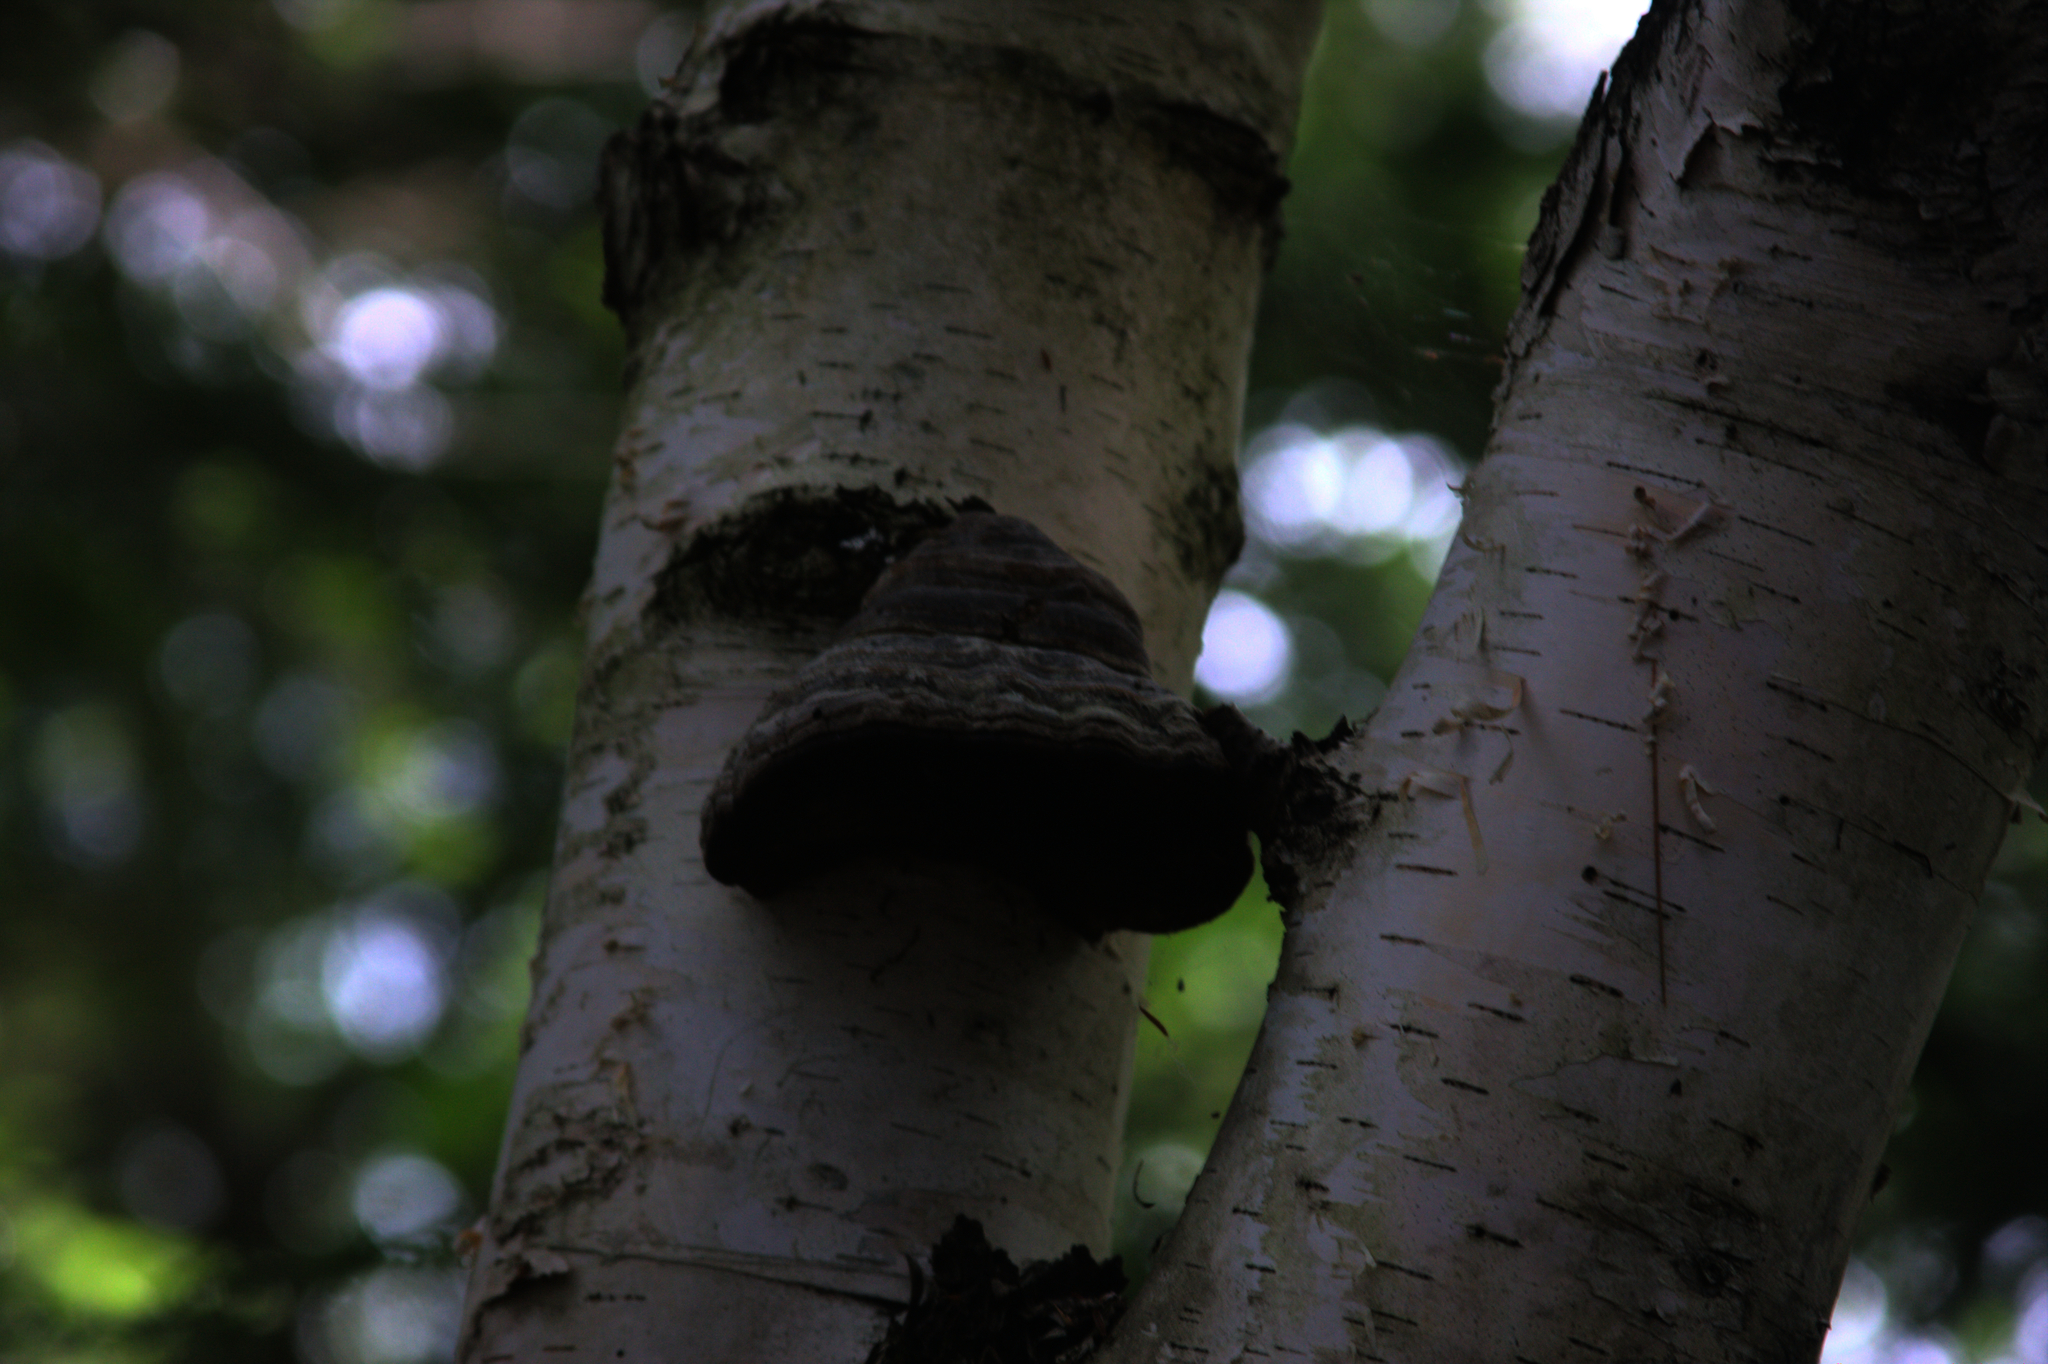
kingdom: Fungi
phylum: Basidiomycota
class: Agaricomycetes
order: Polyporales
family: Polyporaceae
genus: Fomes
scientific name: Fomes fomentarius
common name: Hoof fungus
